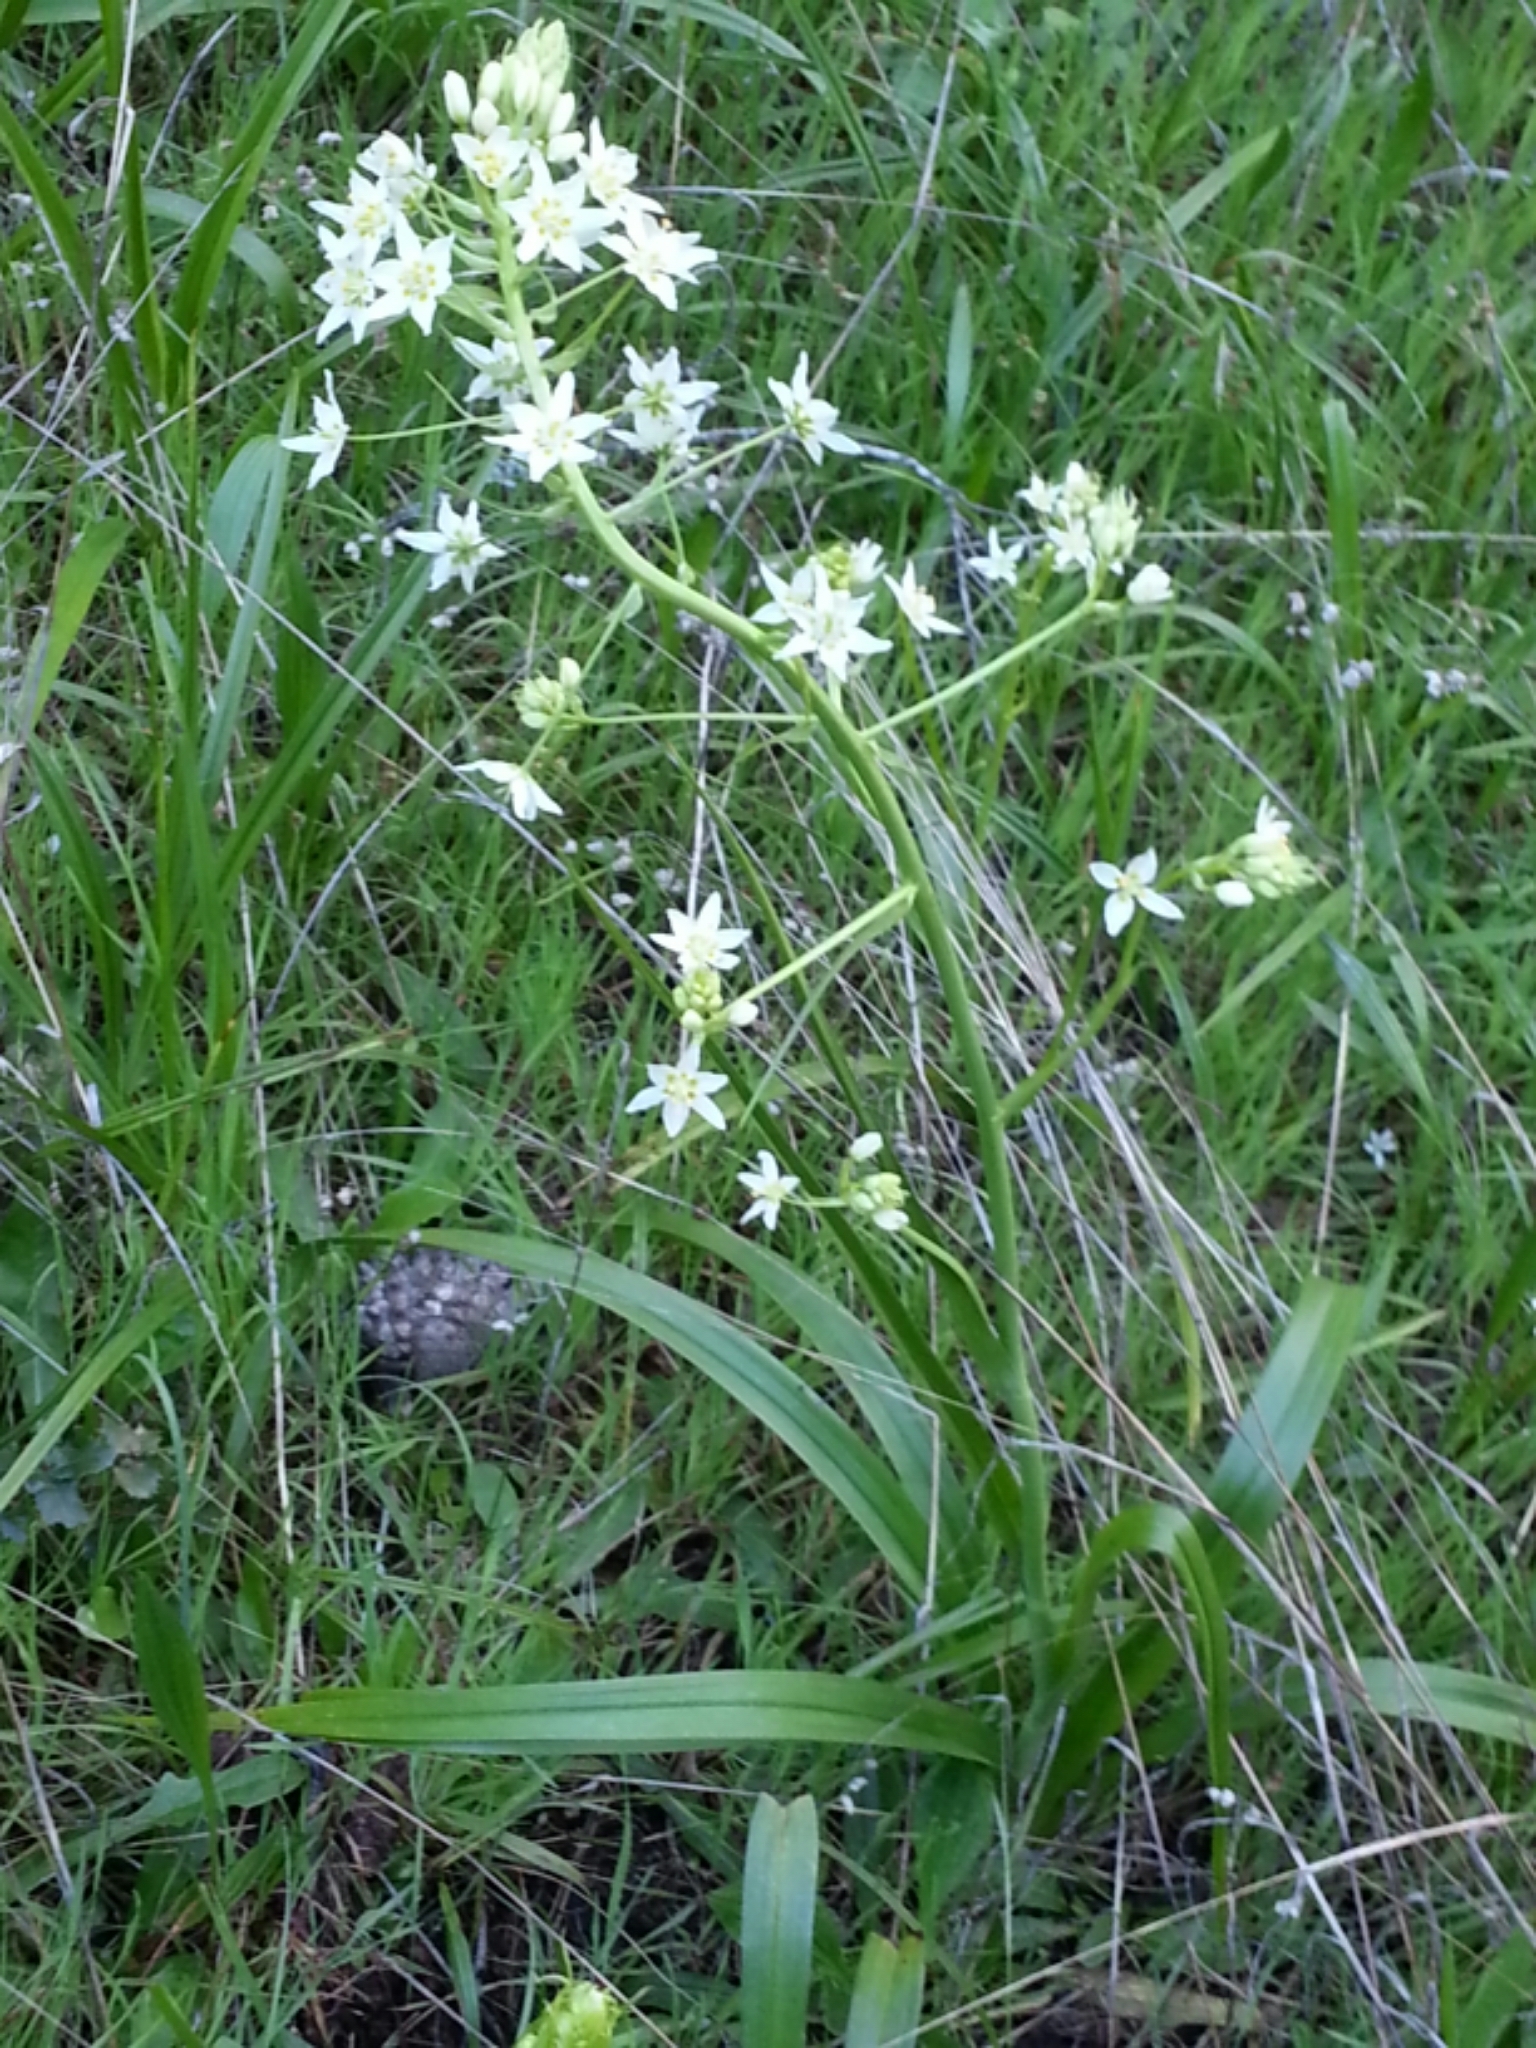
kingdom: Plantae
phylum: Tracheophyta
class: Liliopsida
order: Liliales
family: Melanthiaceae
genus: Toxicoscordion
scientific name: Toxicoscordion fremontii
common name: Fremont's death camas
